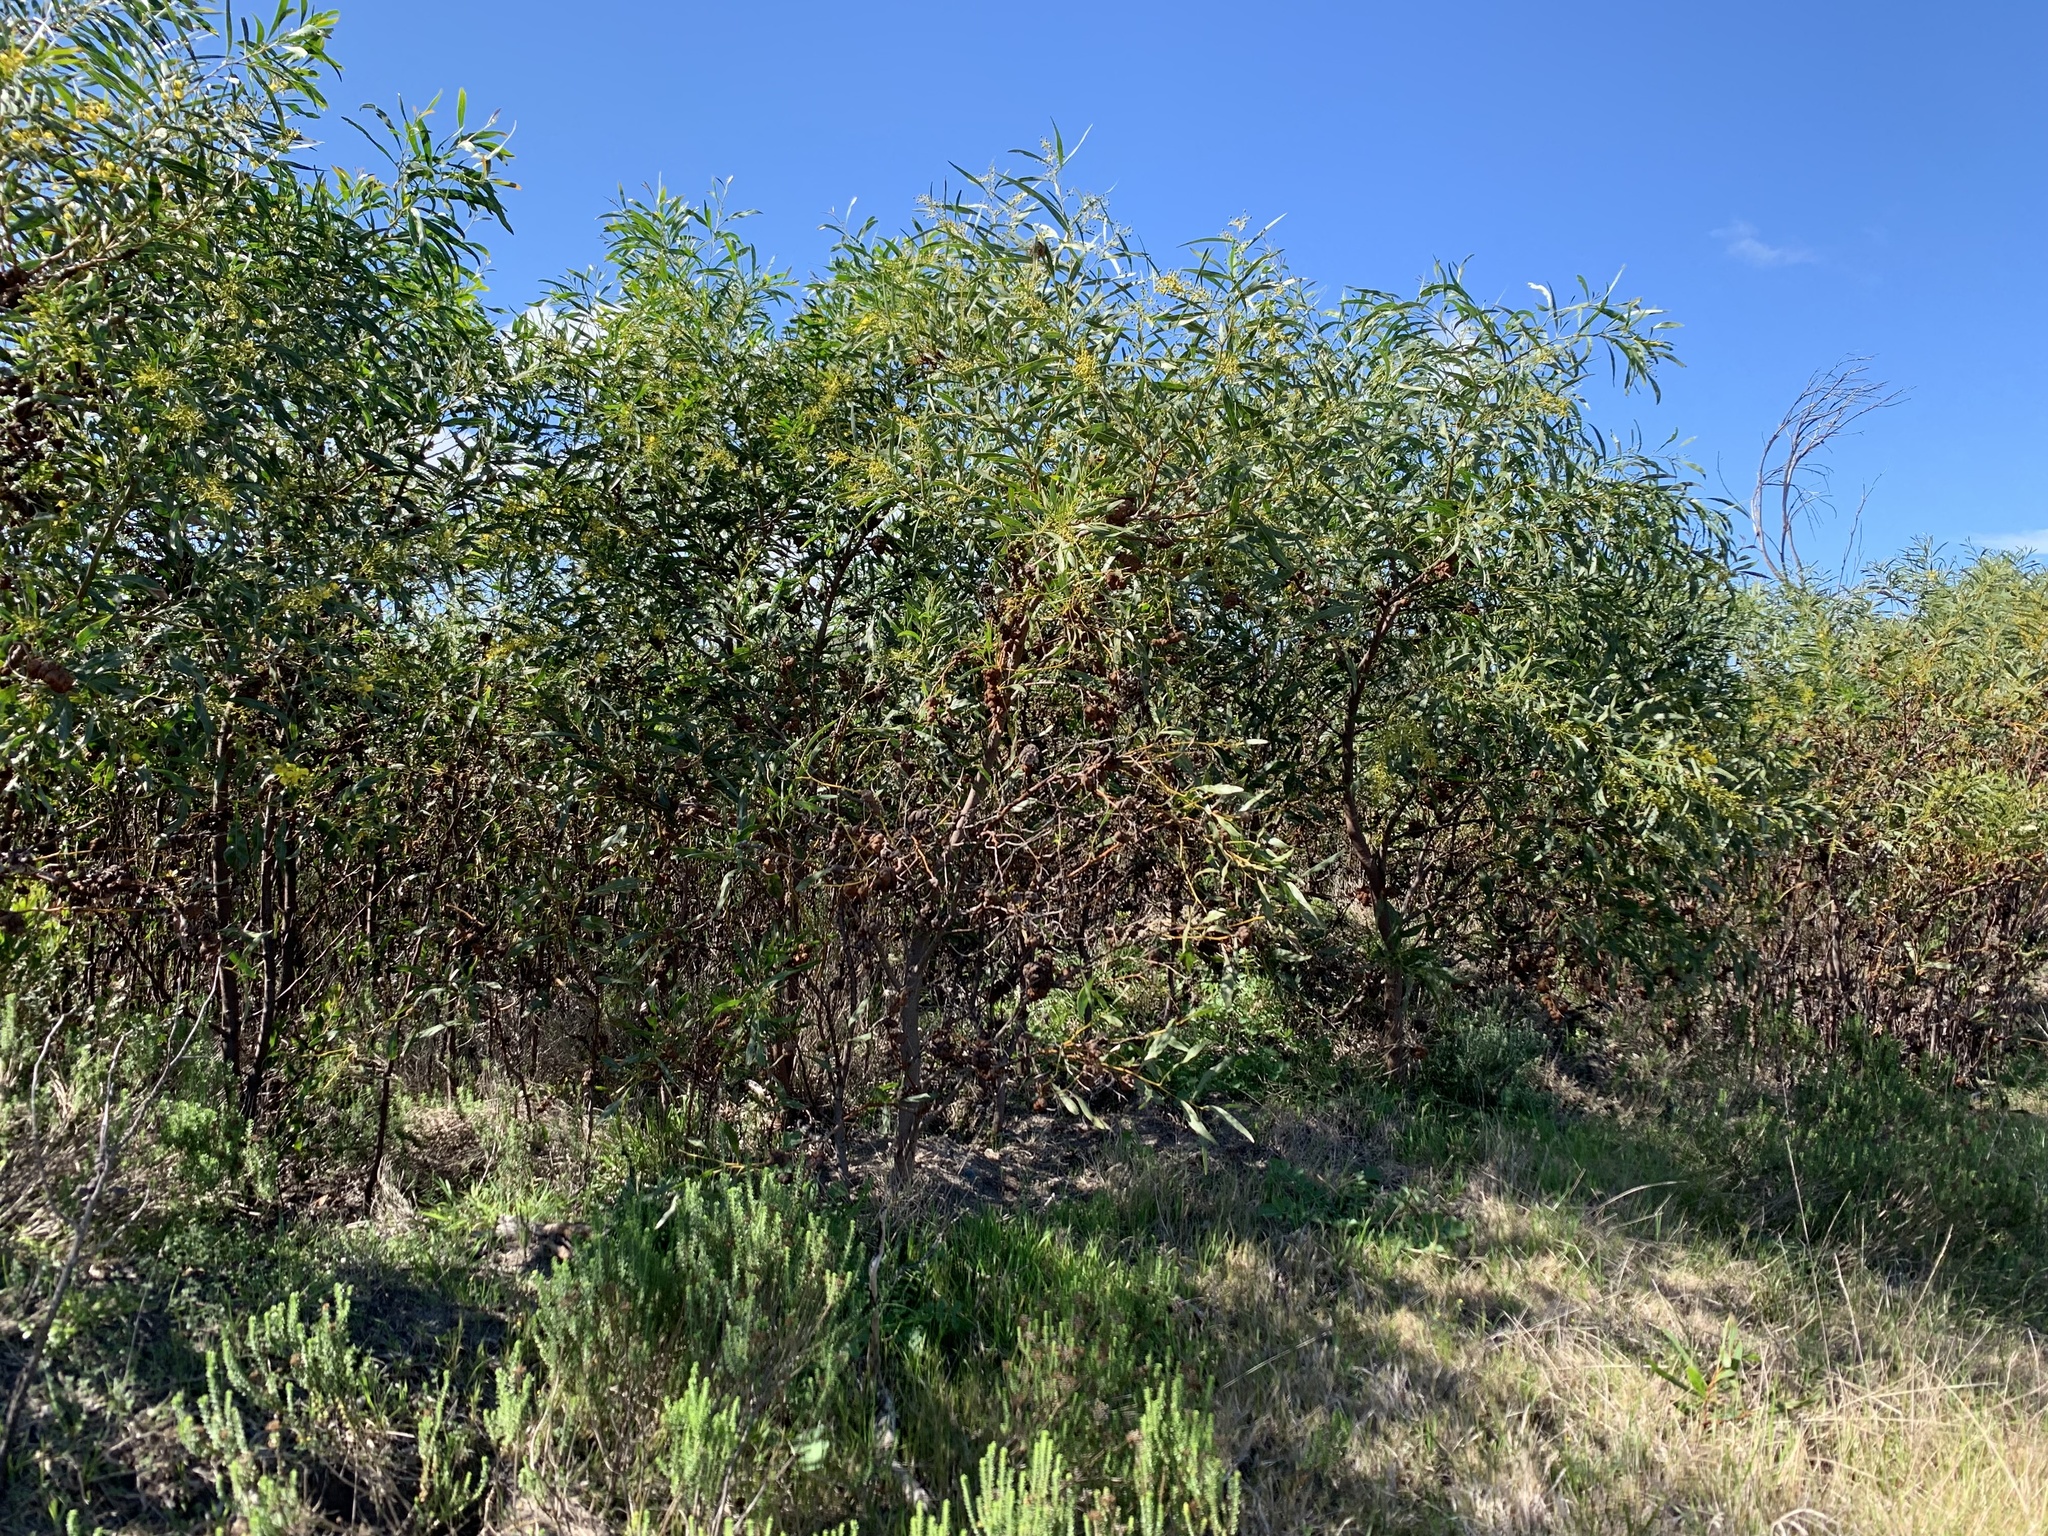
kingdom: Plantae
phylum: Tracheophyta
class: Magnoliopsida
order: Fabales
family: Fabaceae
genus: Acacia
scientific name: Acacia saligna
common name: Orange wattle
